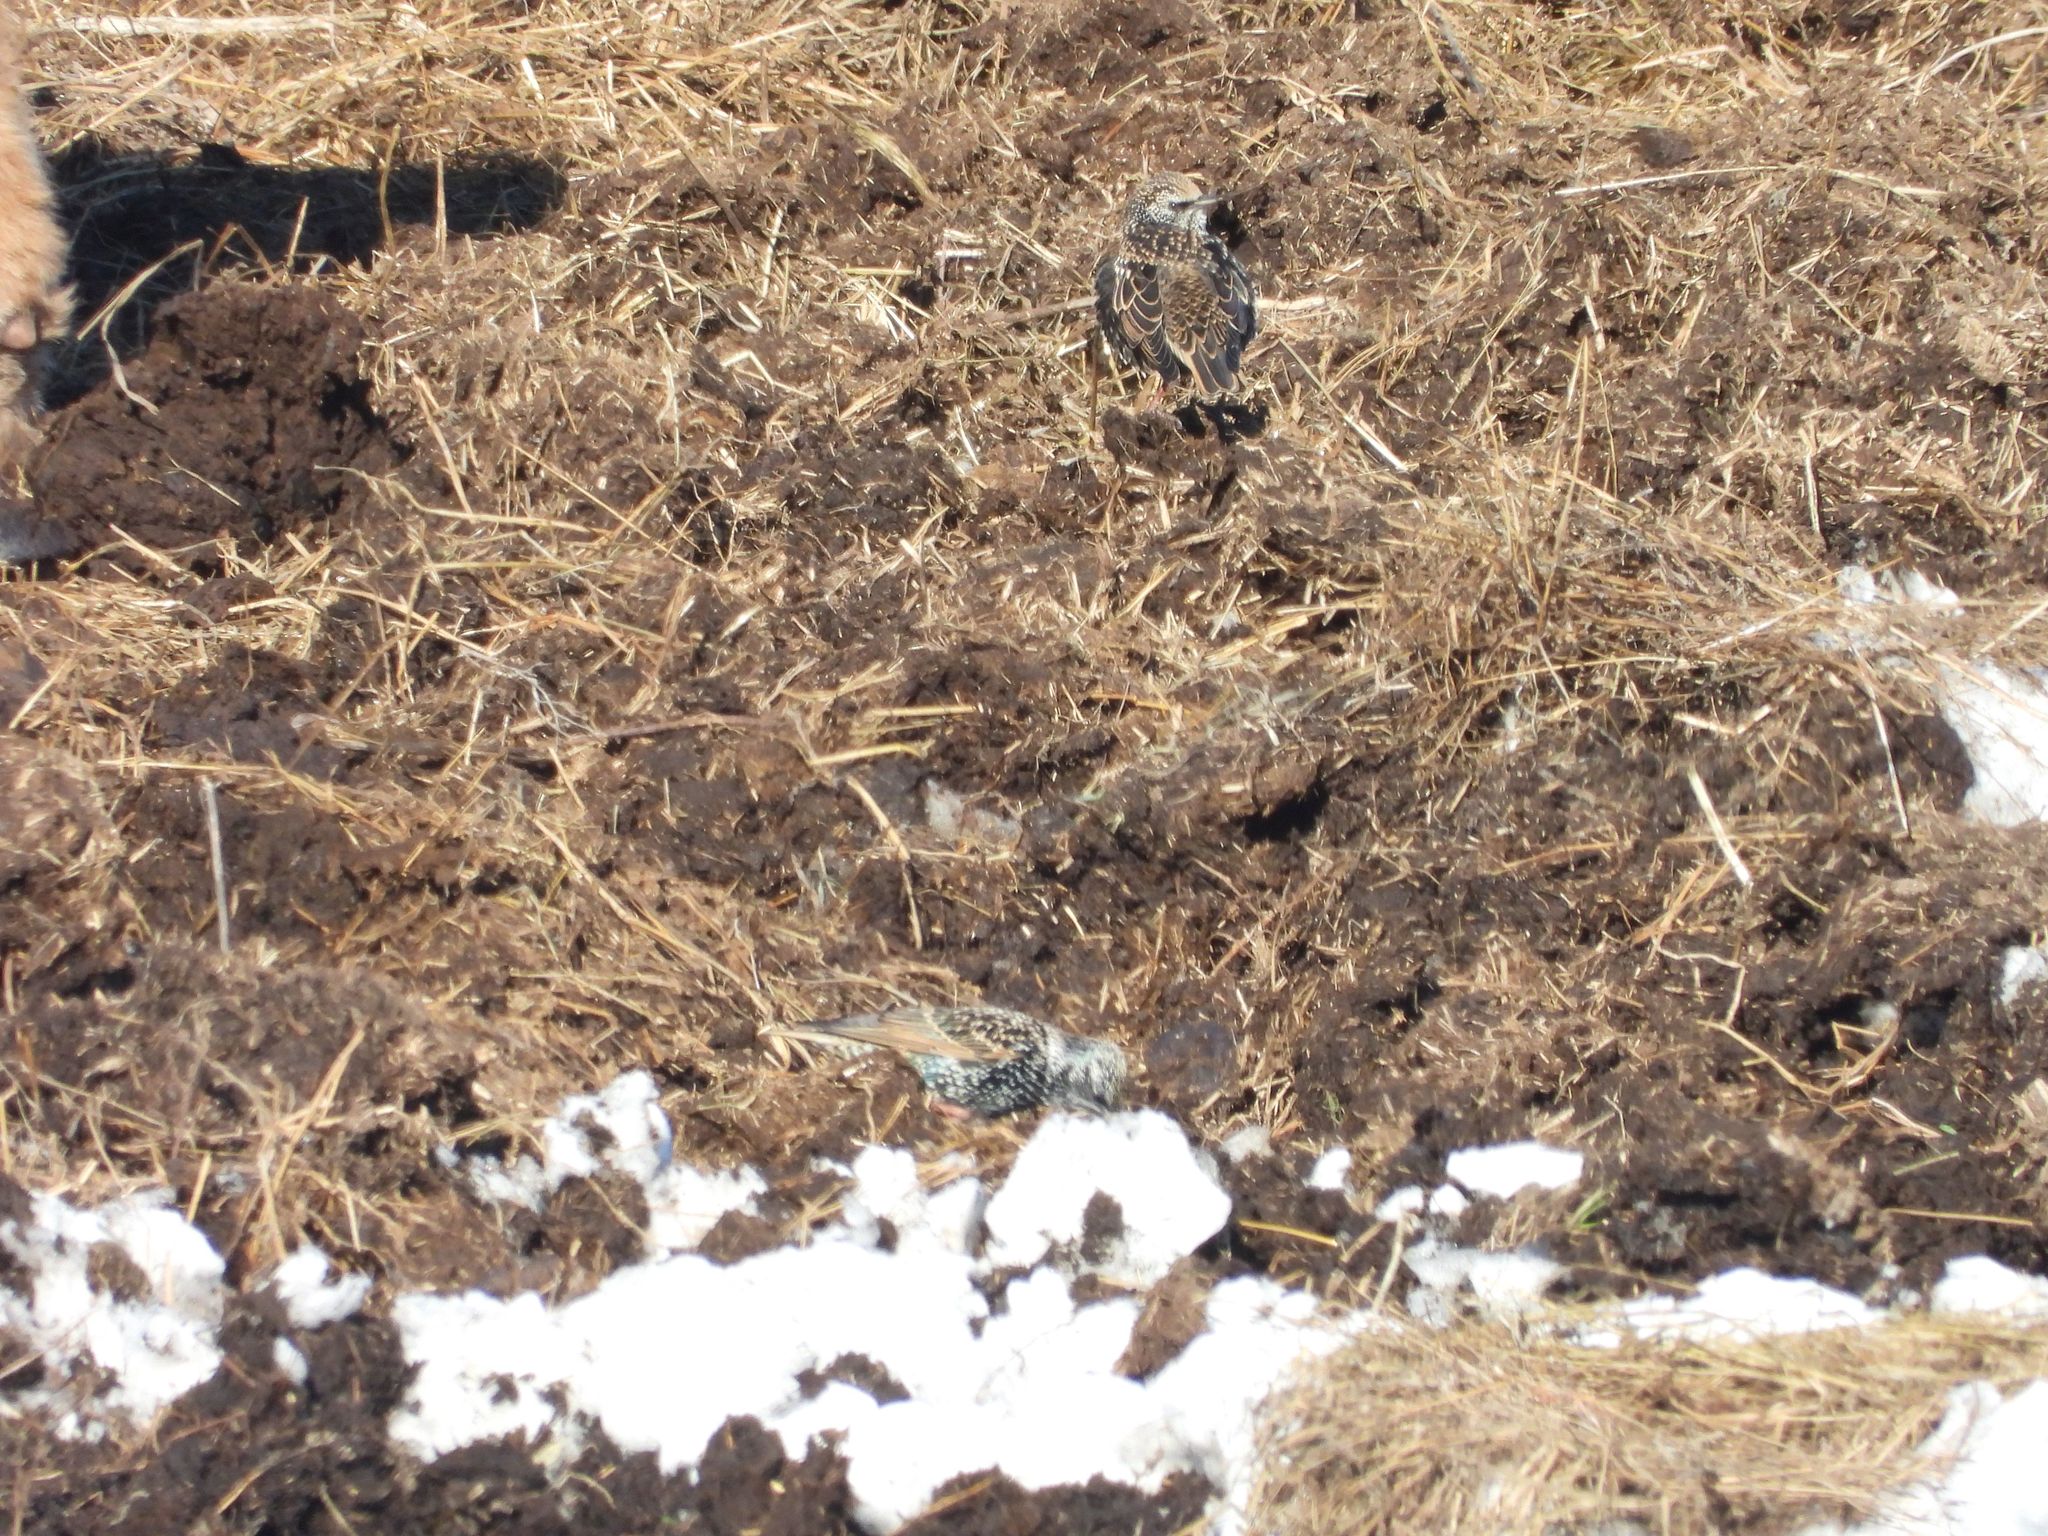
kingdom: Animalia
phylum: Chordata
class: Aves
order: Passeriformes
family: Sturnidae
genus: Sturnus
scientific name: Sturnus vulgaris
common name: Common starling
